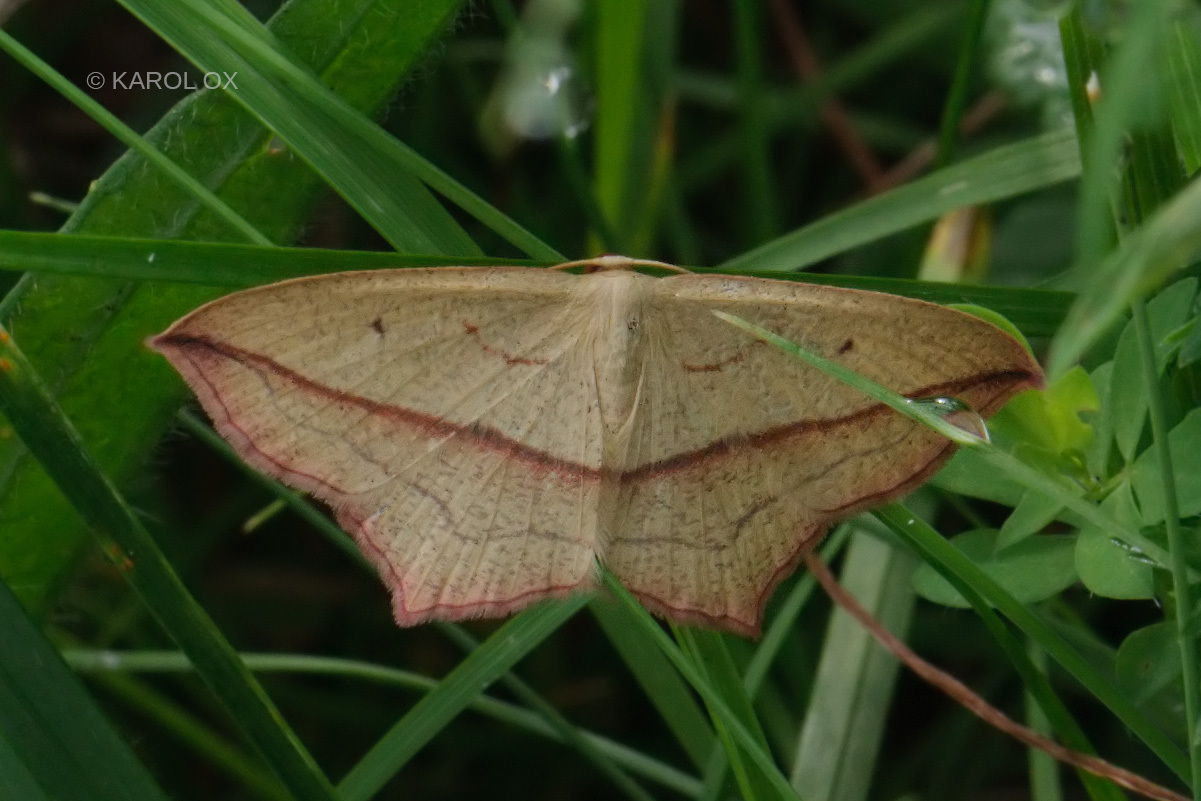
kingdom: Animalia
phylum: Arthropoda
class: Insecta
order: Lepidoptera
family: Geometridae
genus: Timandra
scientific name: Timandra comae
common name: Blood-vein
